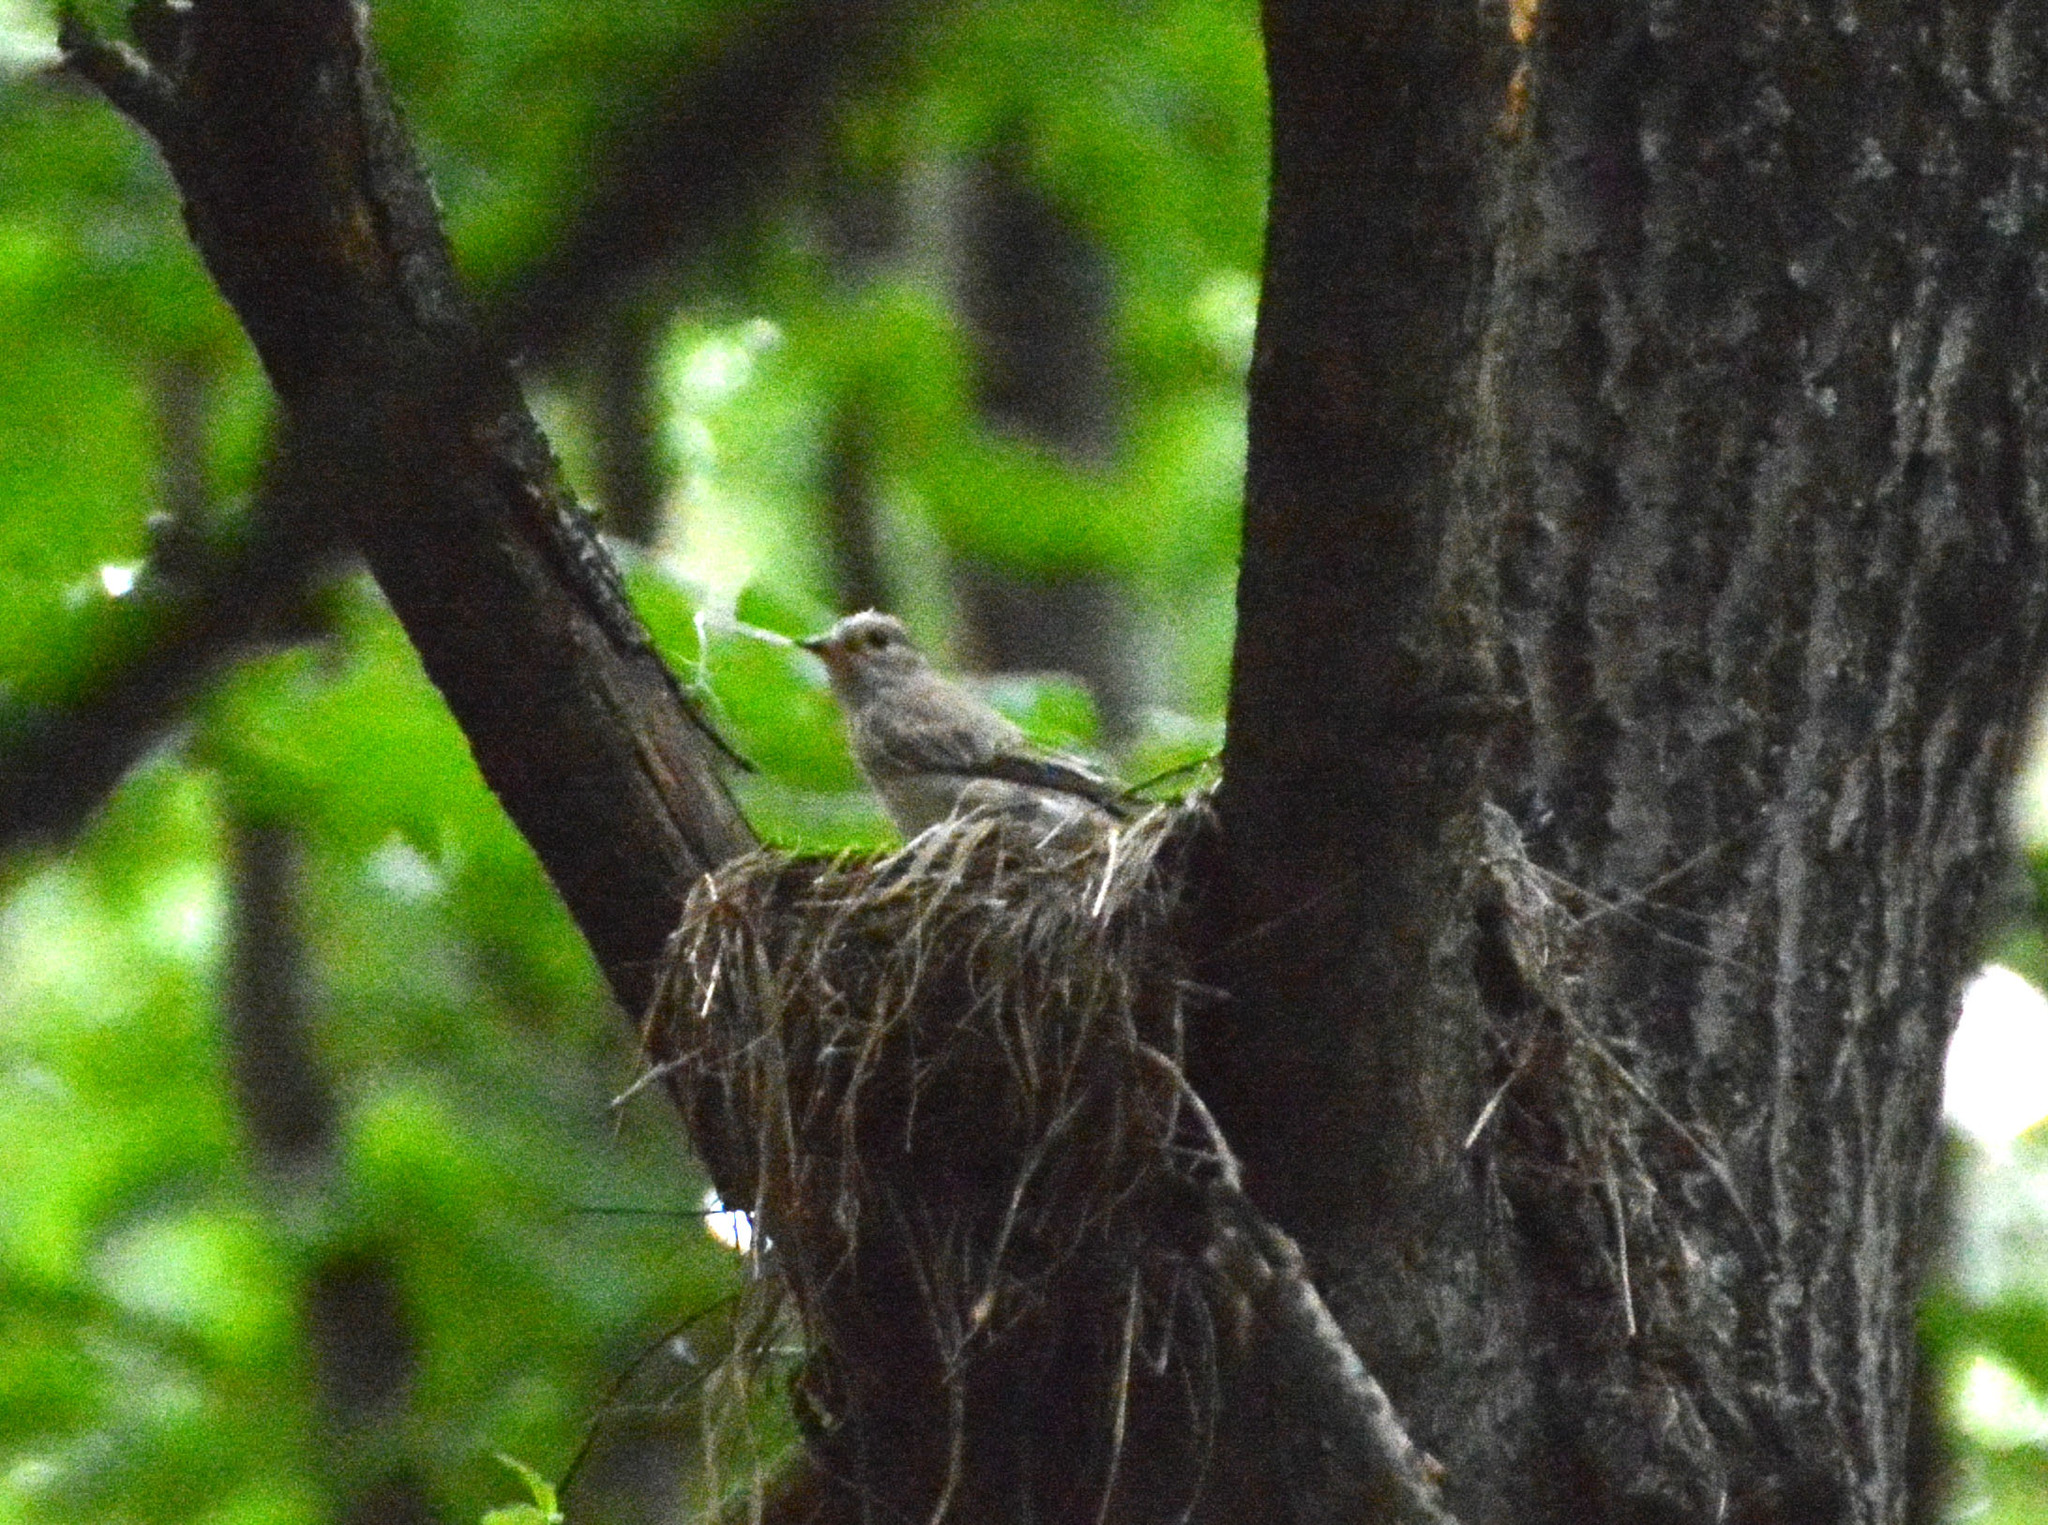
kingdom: Animalia
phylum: Chordata
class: Aves
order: Passeriformes
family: Muscicapidae
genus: Muscicapa
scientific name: Muscicapa striata
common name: Spotted flycatcher
